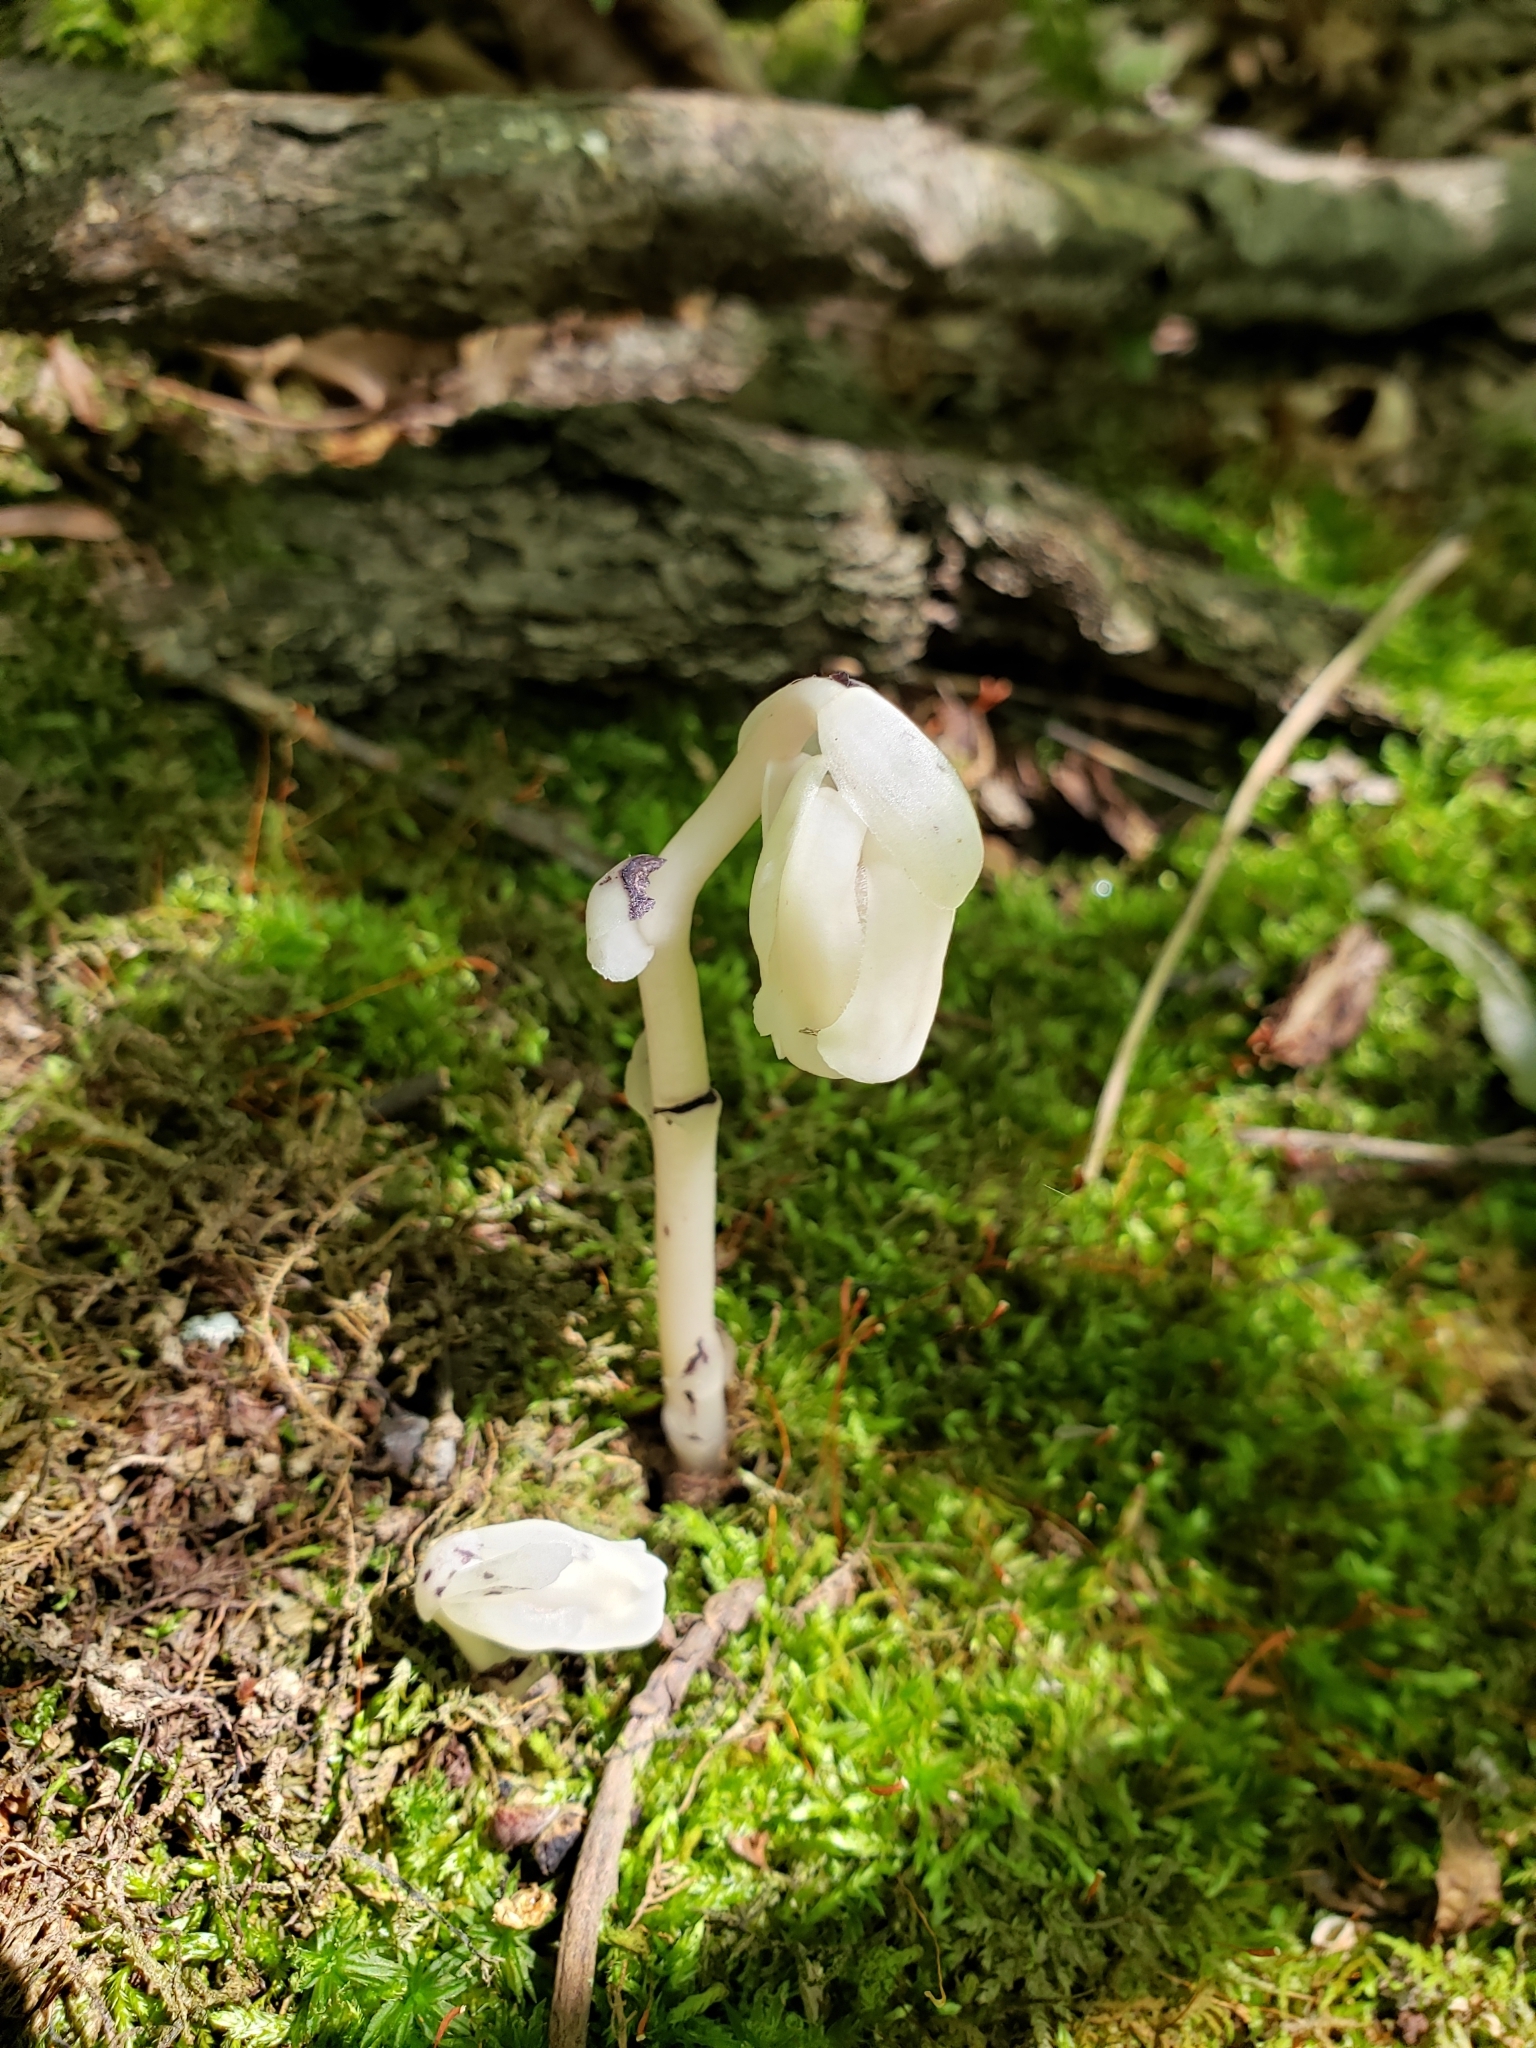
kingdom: Plantae
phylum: Tracheophyta
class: Magnoliopsida
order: Ericales
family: Ericaceae
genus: Monotropa
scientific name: Monotropa uniflora
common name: Convulsion root
